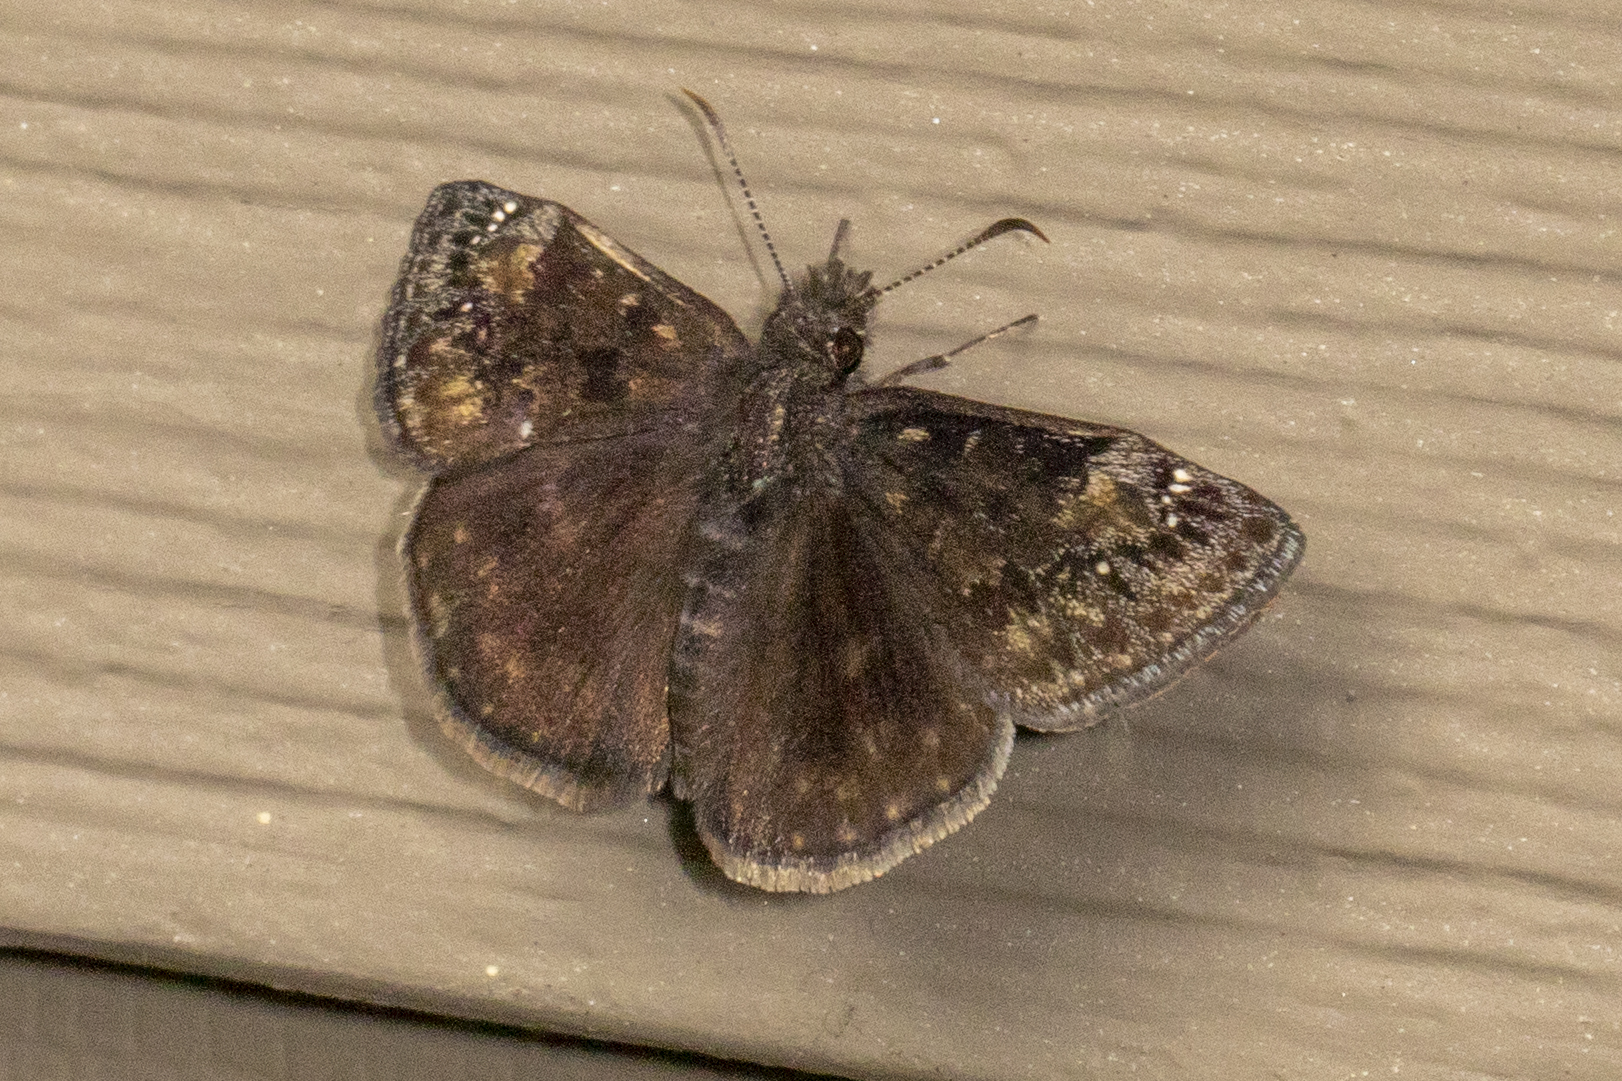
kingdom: Animalia
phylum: Arthropoda
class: Insecta
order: Lepidoptera
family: Hesperiidae
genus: Erynnis
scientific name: Erynnis baptisiae
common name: Wild indigo duskywing
